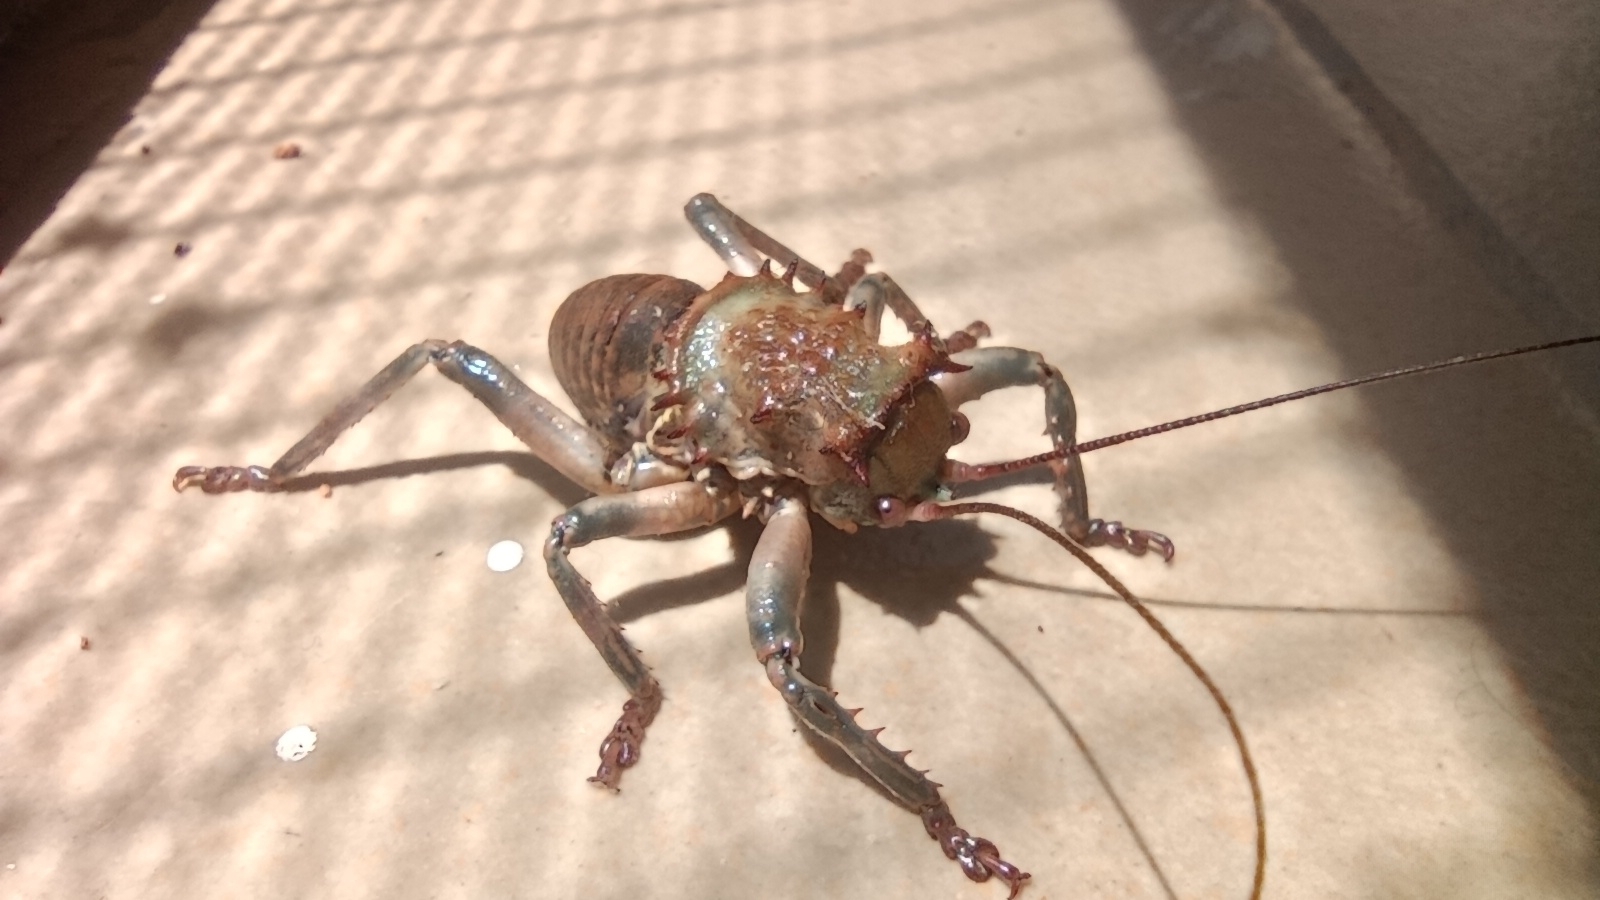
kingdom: Animalia
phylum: Arthropoda
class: Insecta
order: Orthoptera
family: Tettigoniidae
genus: Spalacomimus
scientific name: Spalacomimus magnus
